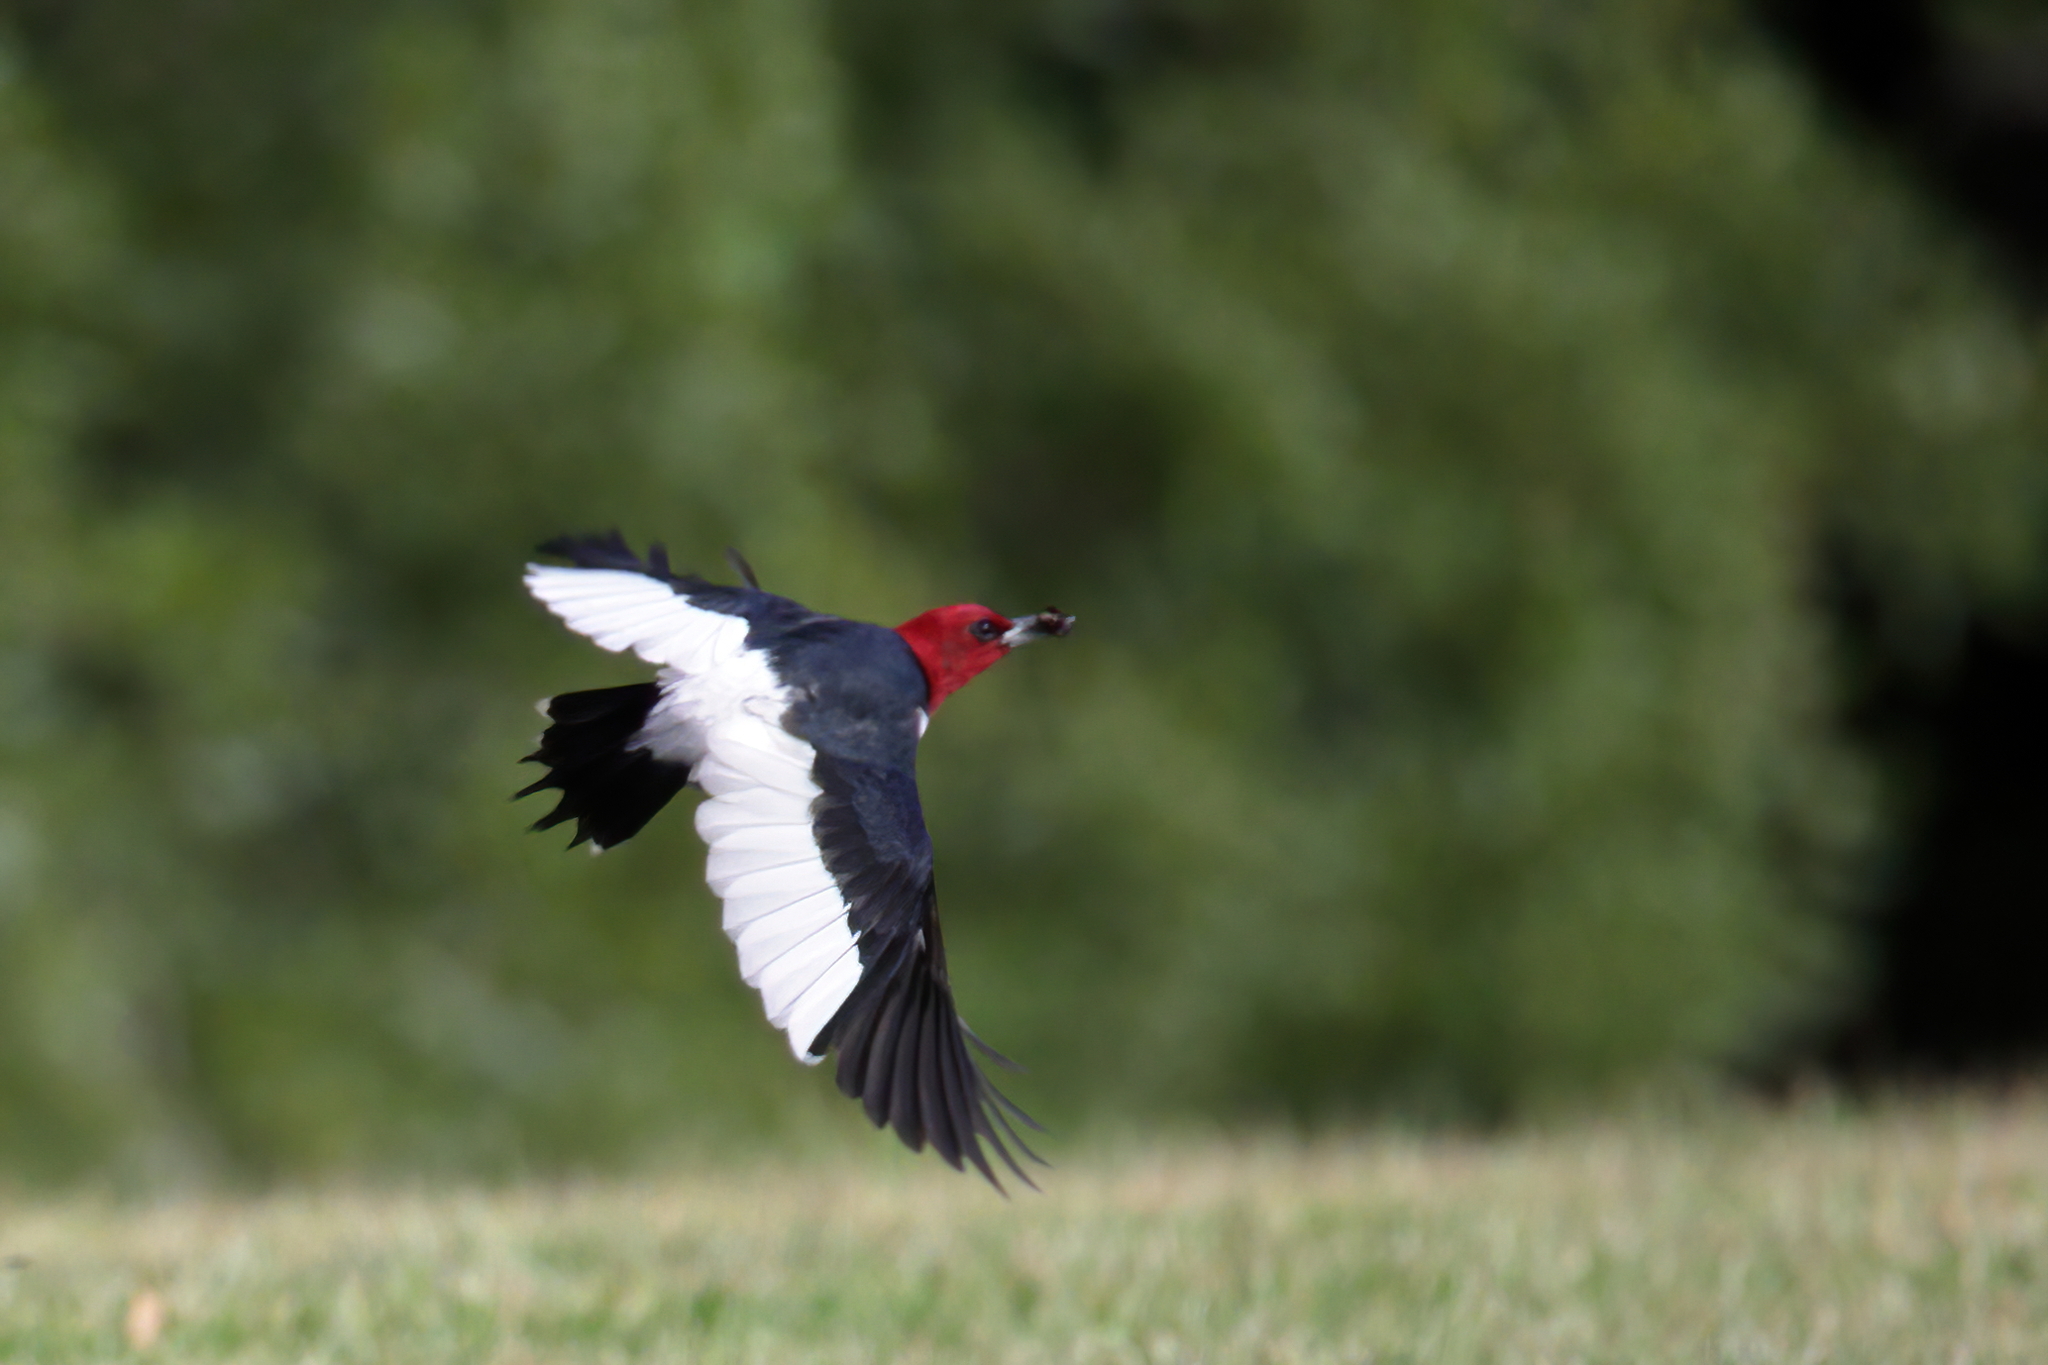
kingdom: Animalia
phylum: Chordata
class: Aves
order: Piciformes
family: Picidae
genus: Melanerpes
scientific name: Melanerpes erythrocephalus
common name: Red-headed woodpecker
